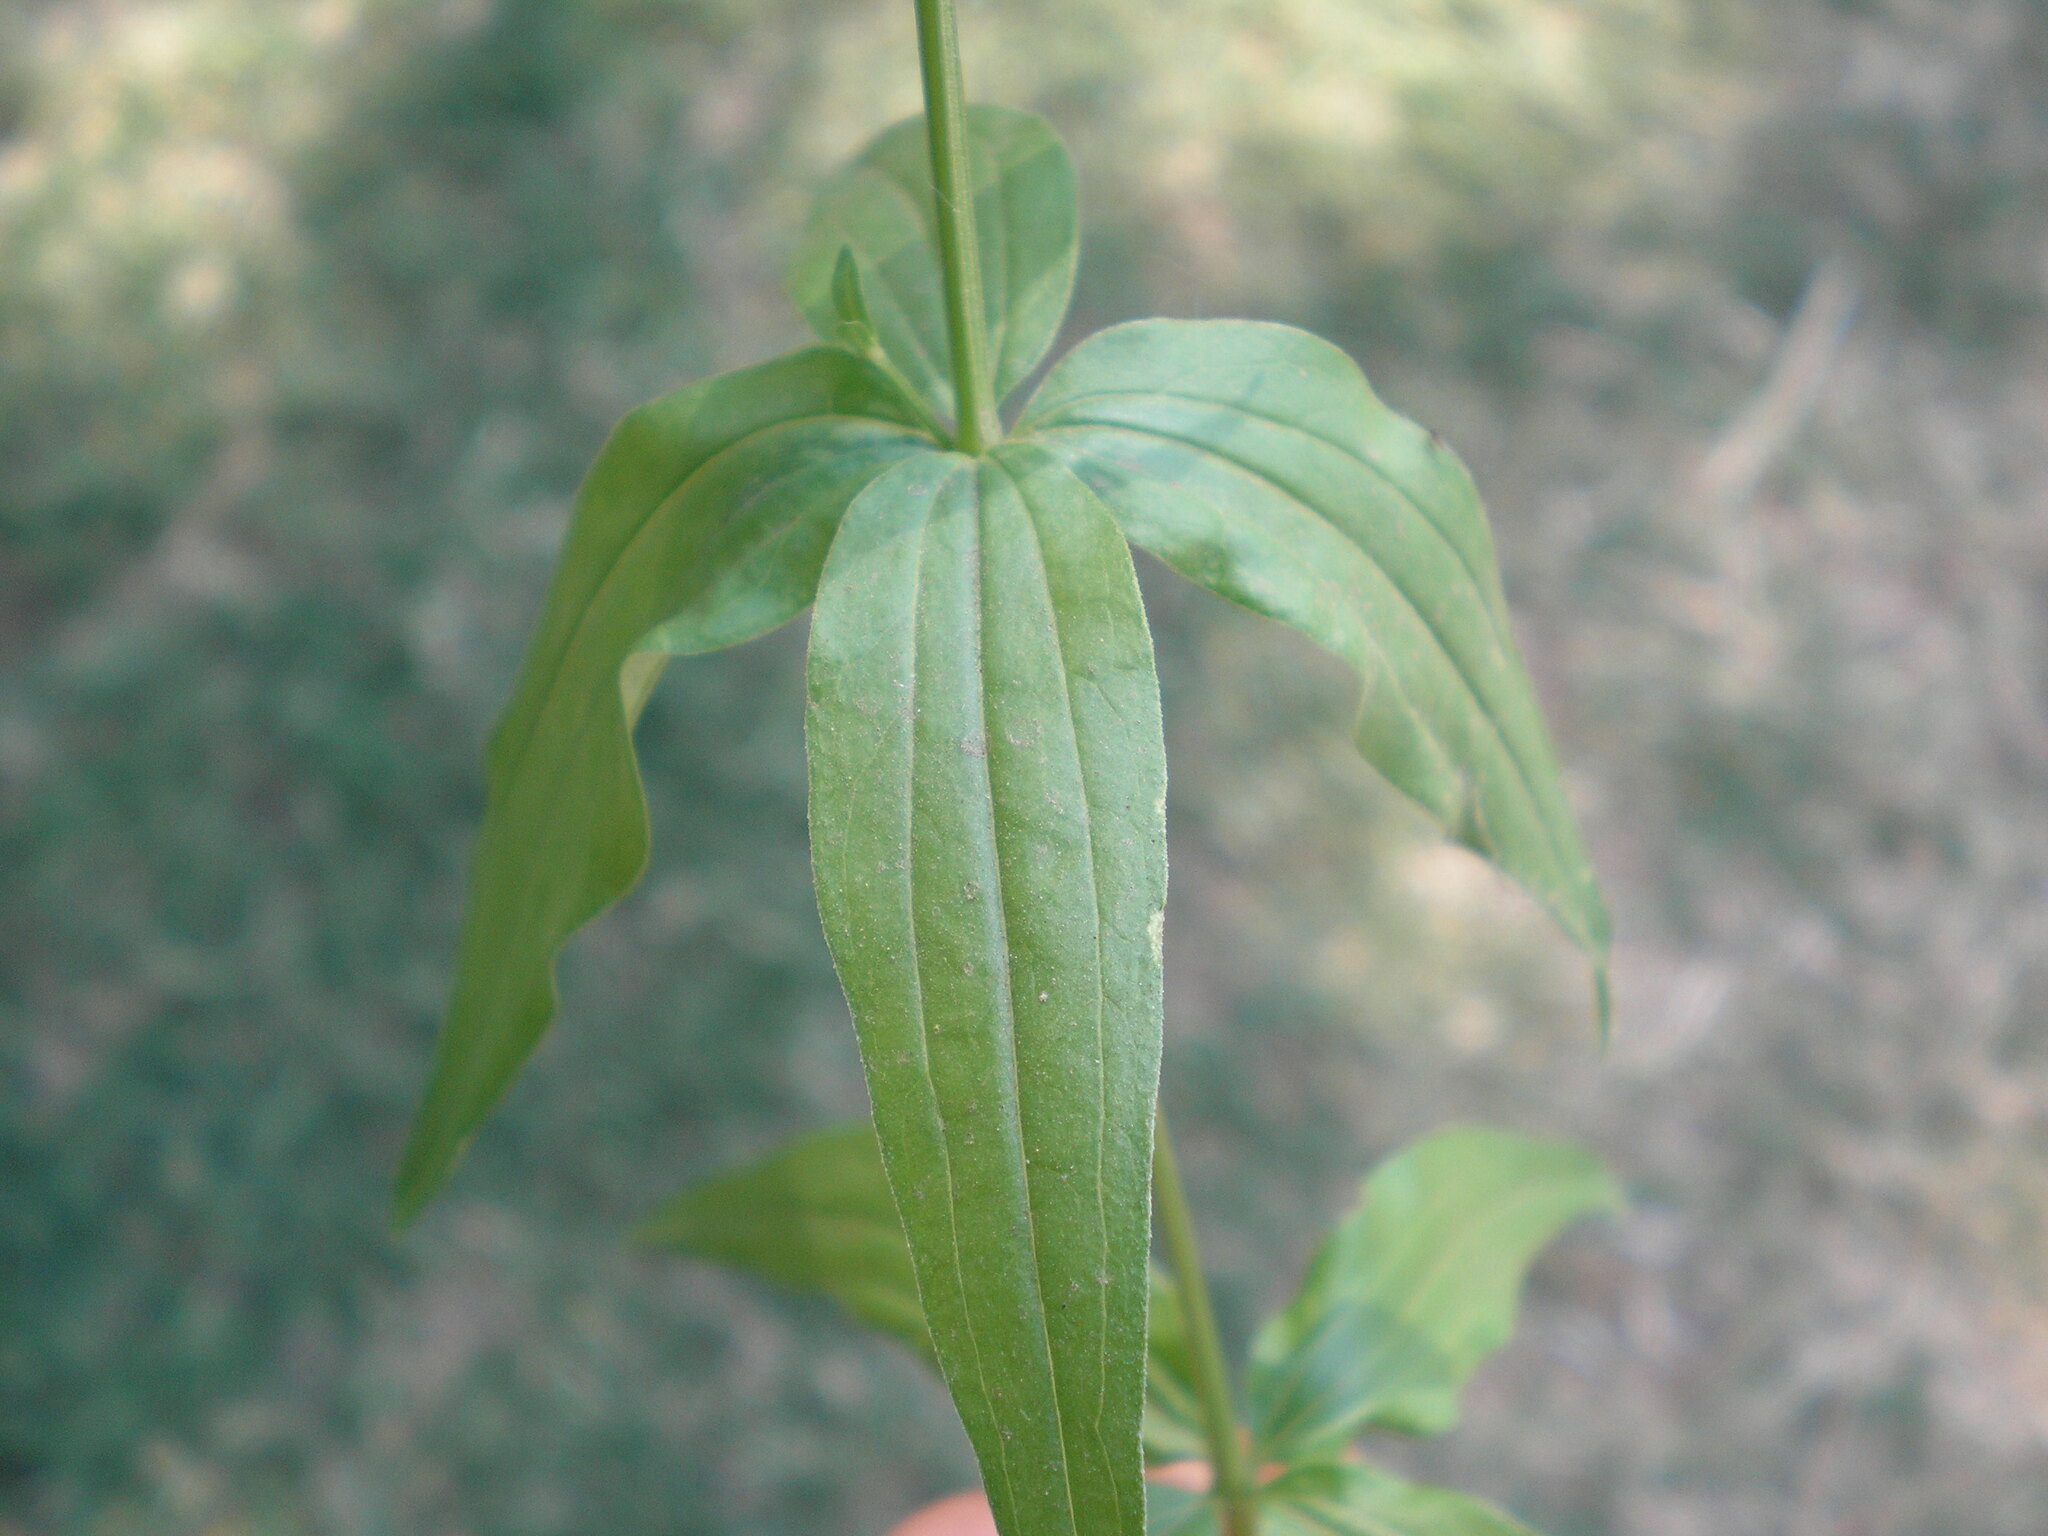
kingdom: Plantae
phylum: Tracheophyta
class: Magnoliopsida
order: Gentianales
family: Rubiaceae
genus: Galium
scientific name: Galium rubioides
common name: European bedstraw
